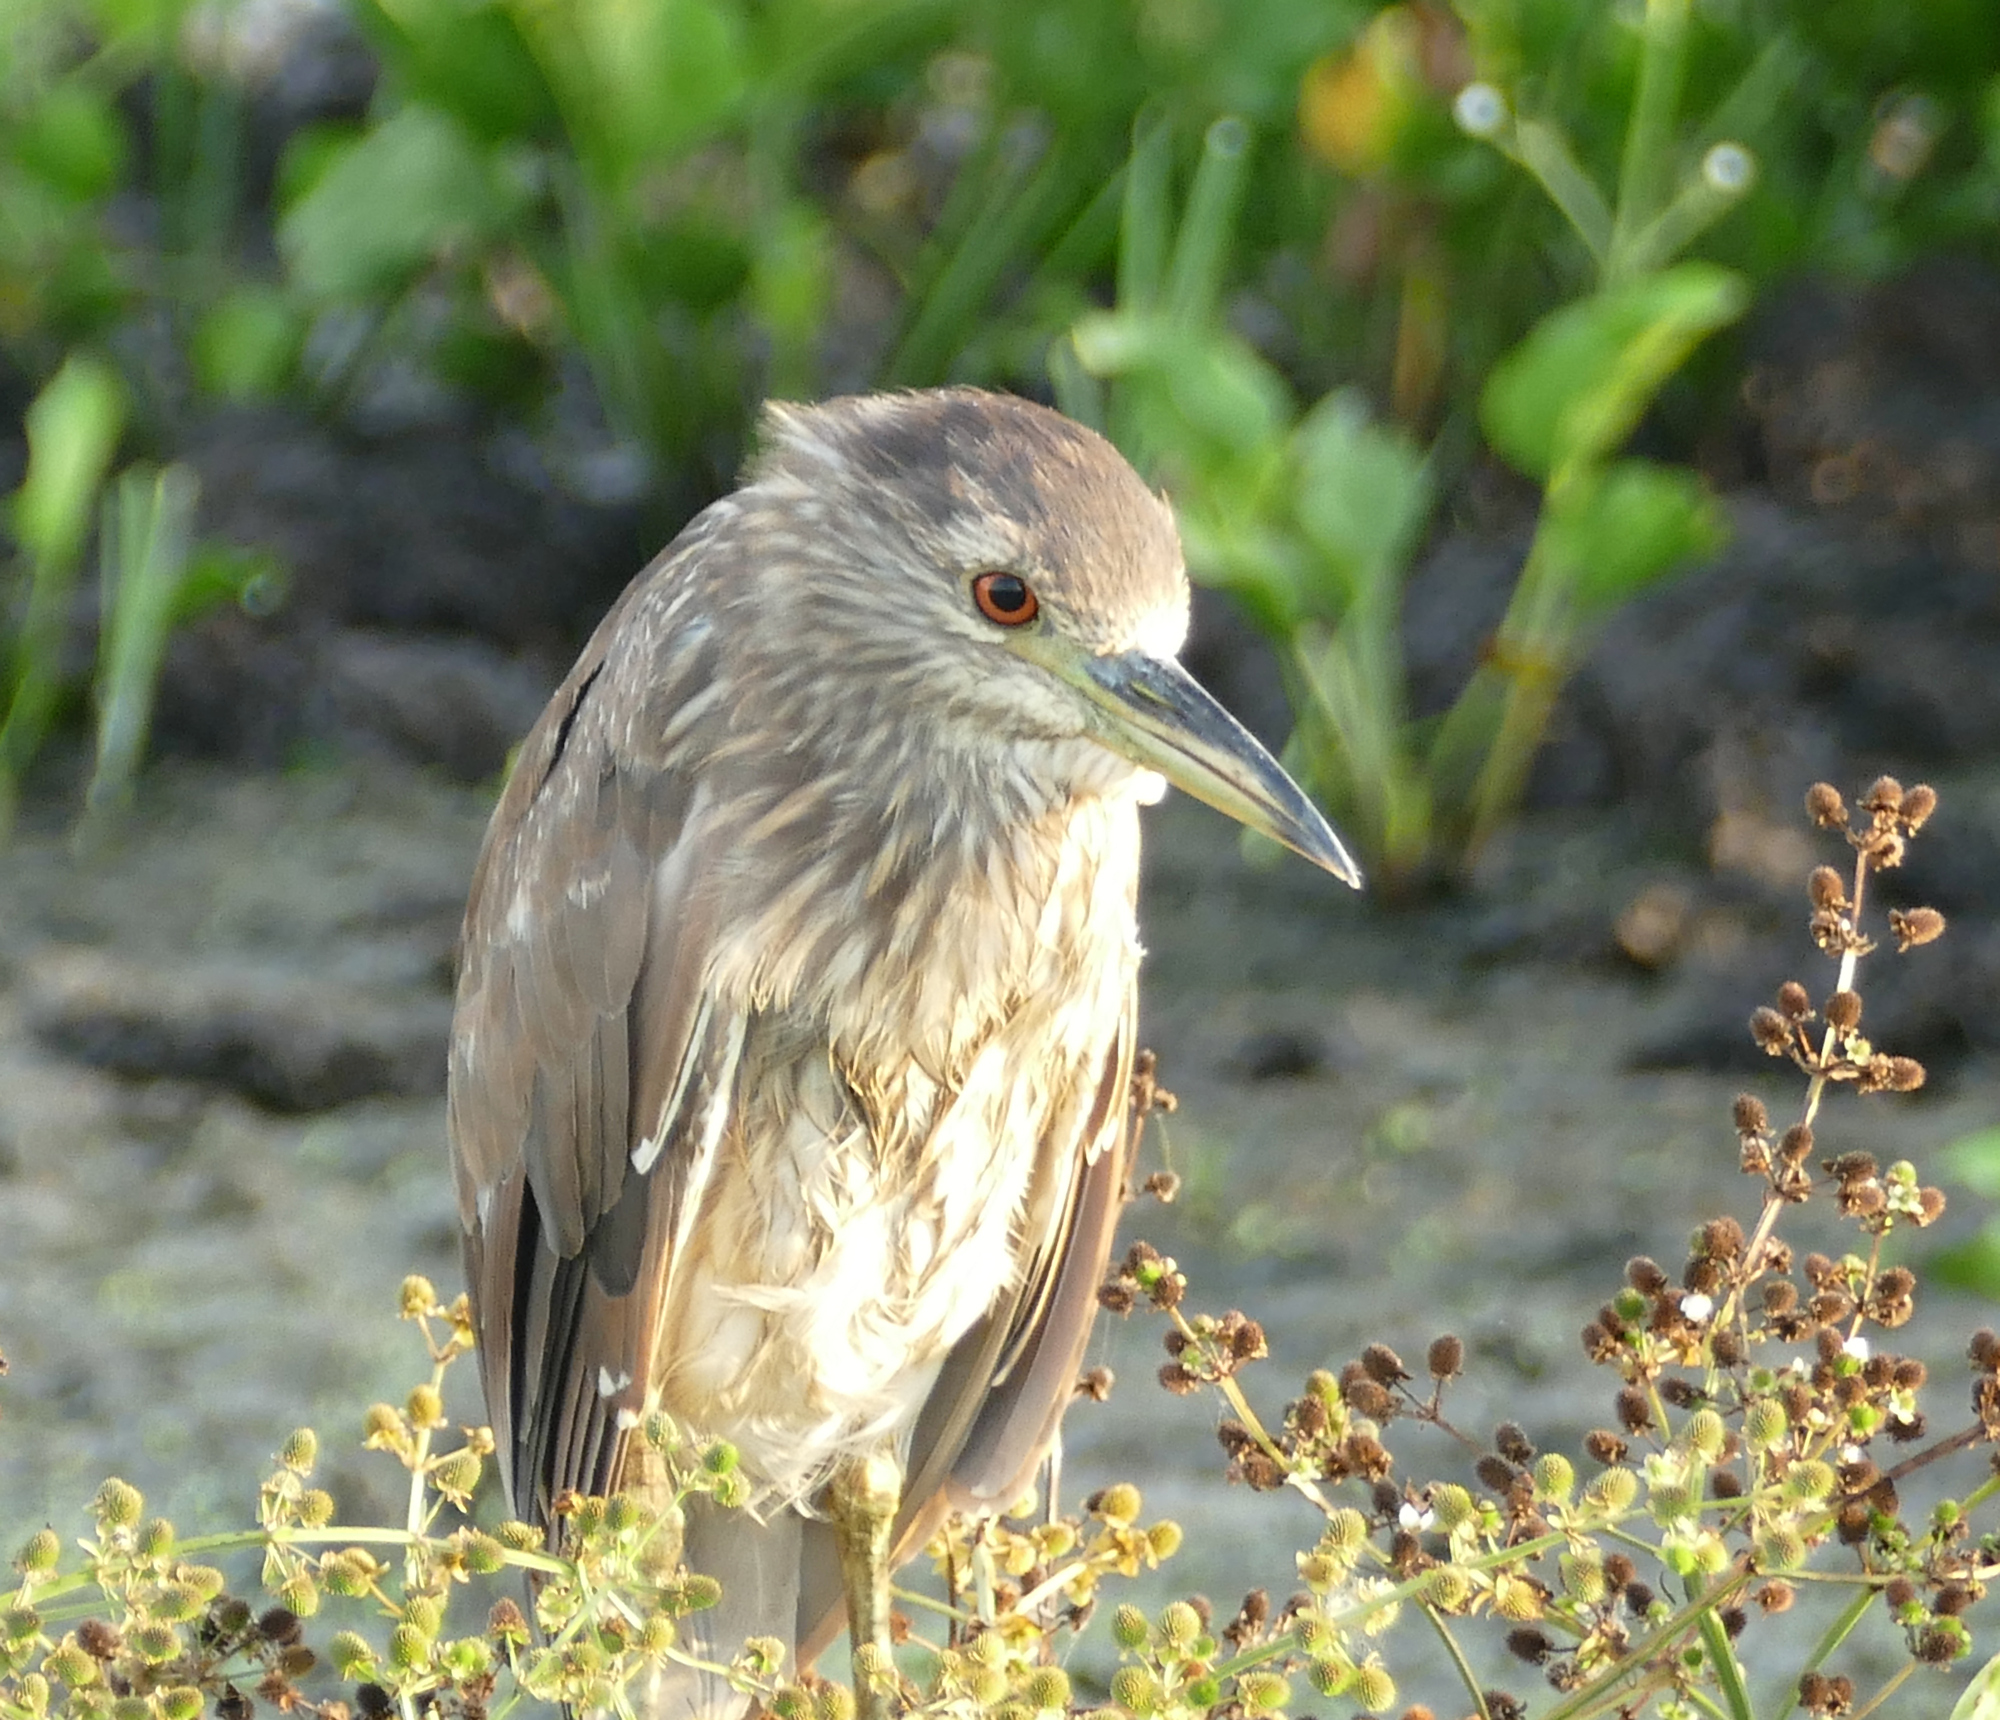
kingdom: Animalia
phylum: Chordata
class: Aves
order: Pelecaniformes
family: Ardeidae
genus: Nycticorax
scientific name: Nycticorax nycticorax
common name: Black-crowned night heron
